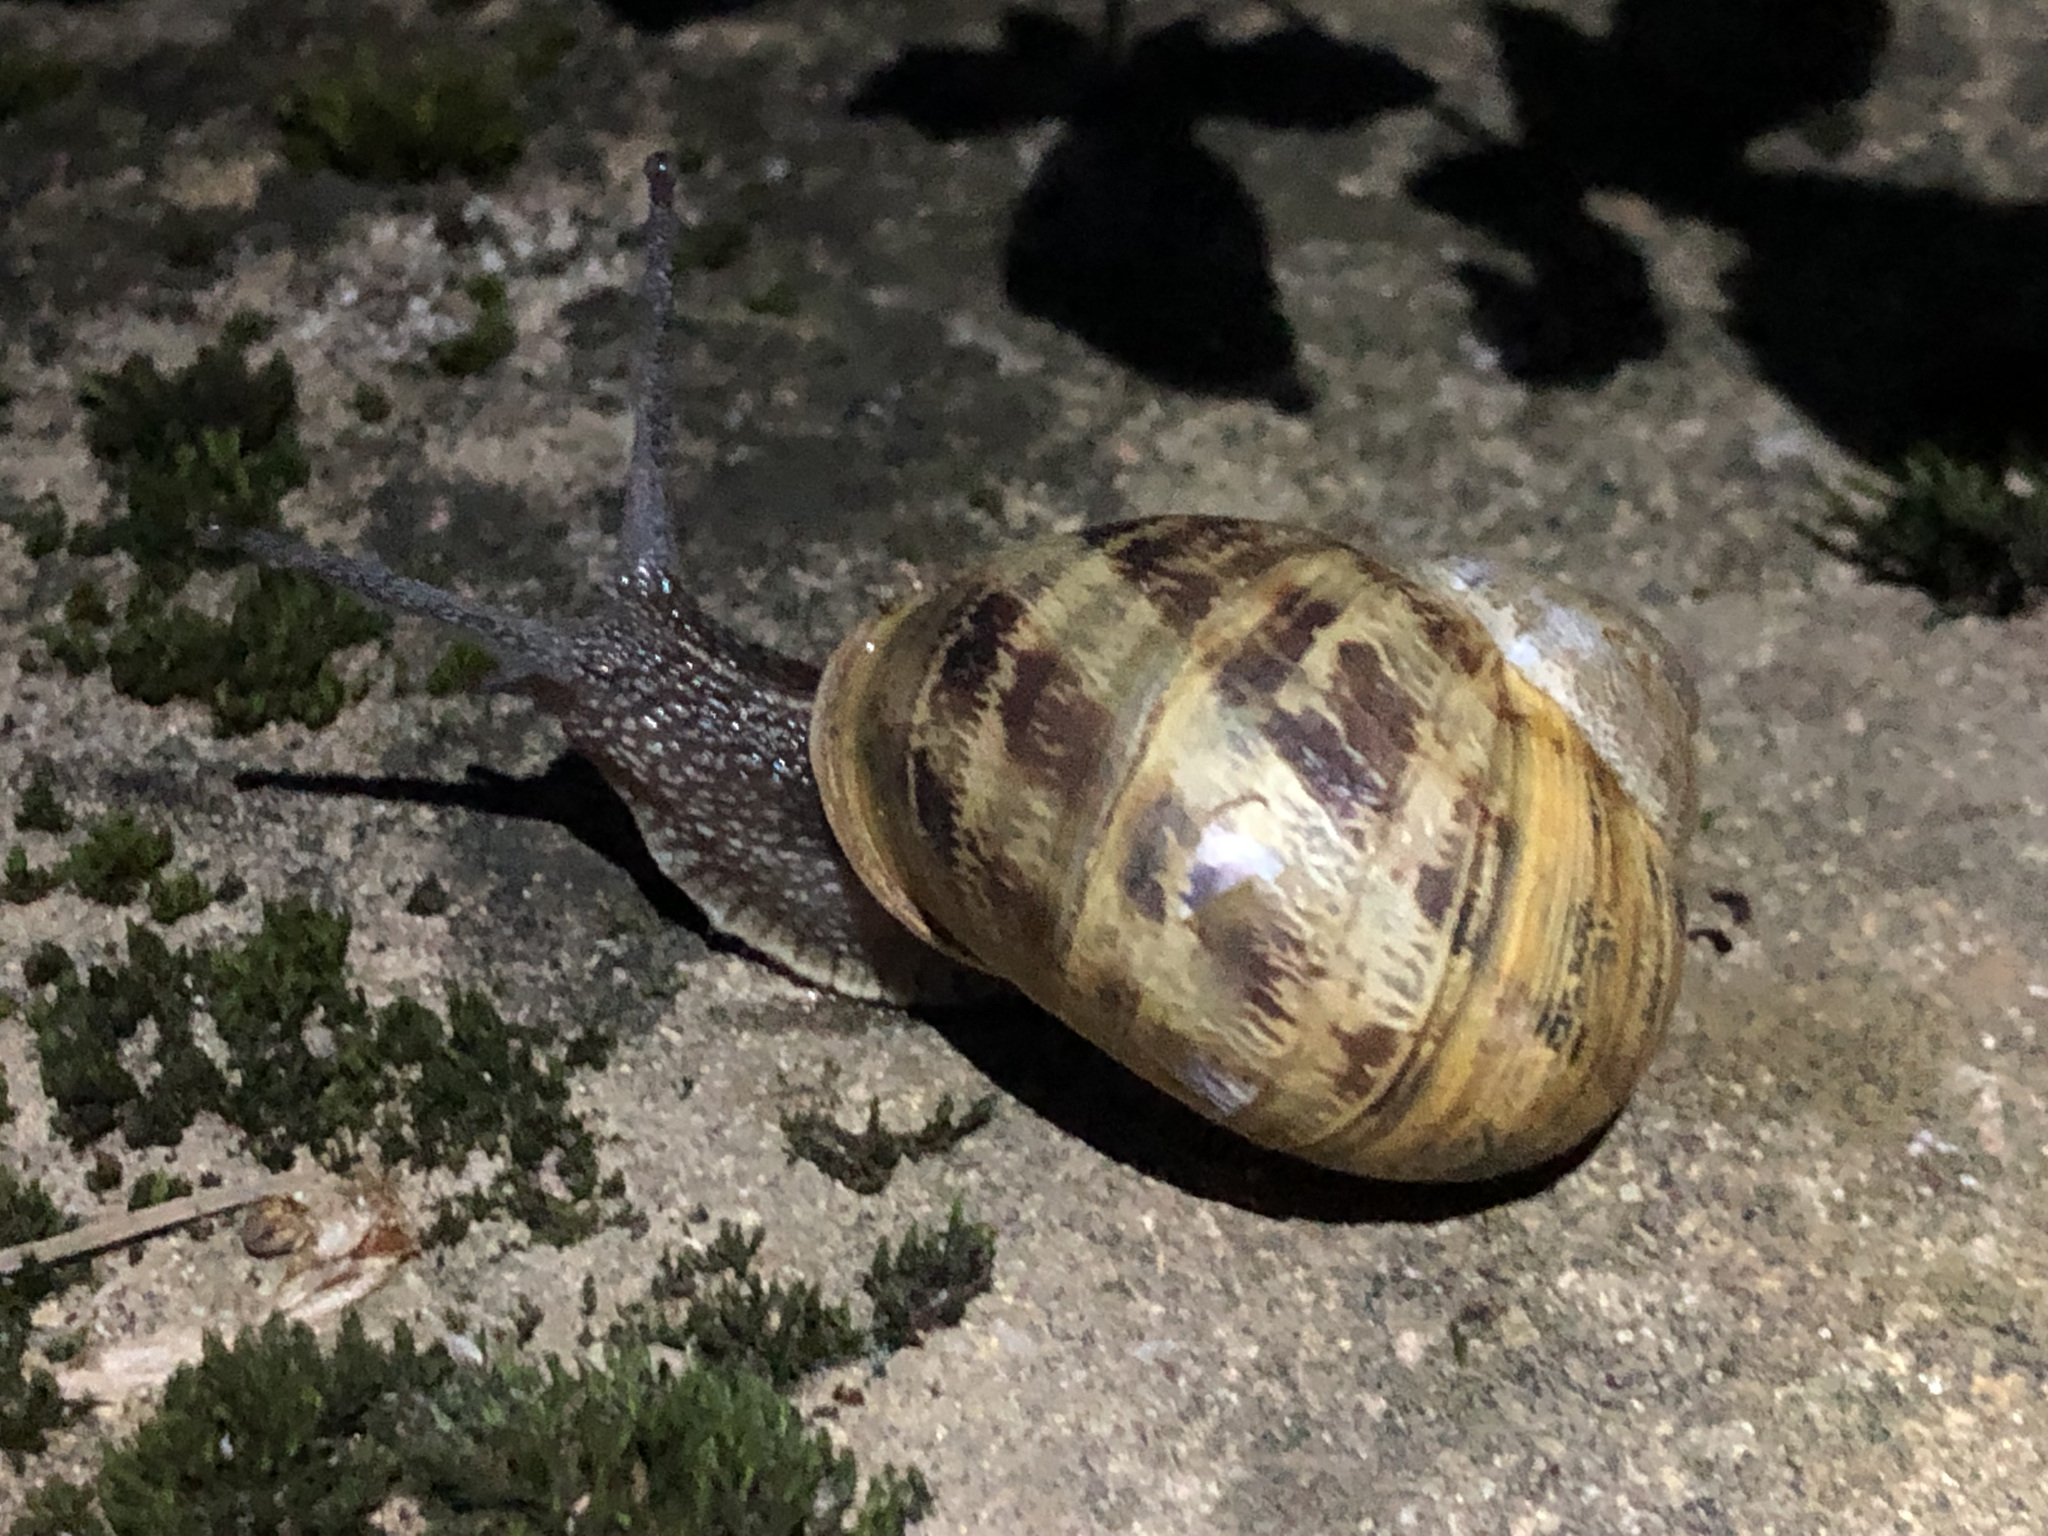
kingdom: Animalia
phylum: Mollusca
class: Gastropoda
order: Stylommatophora
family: Helicidae
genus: Cornu
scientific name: Cornu aspersum
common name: Brown garden snail
